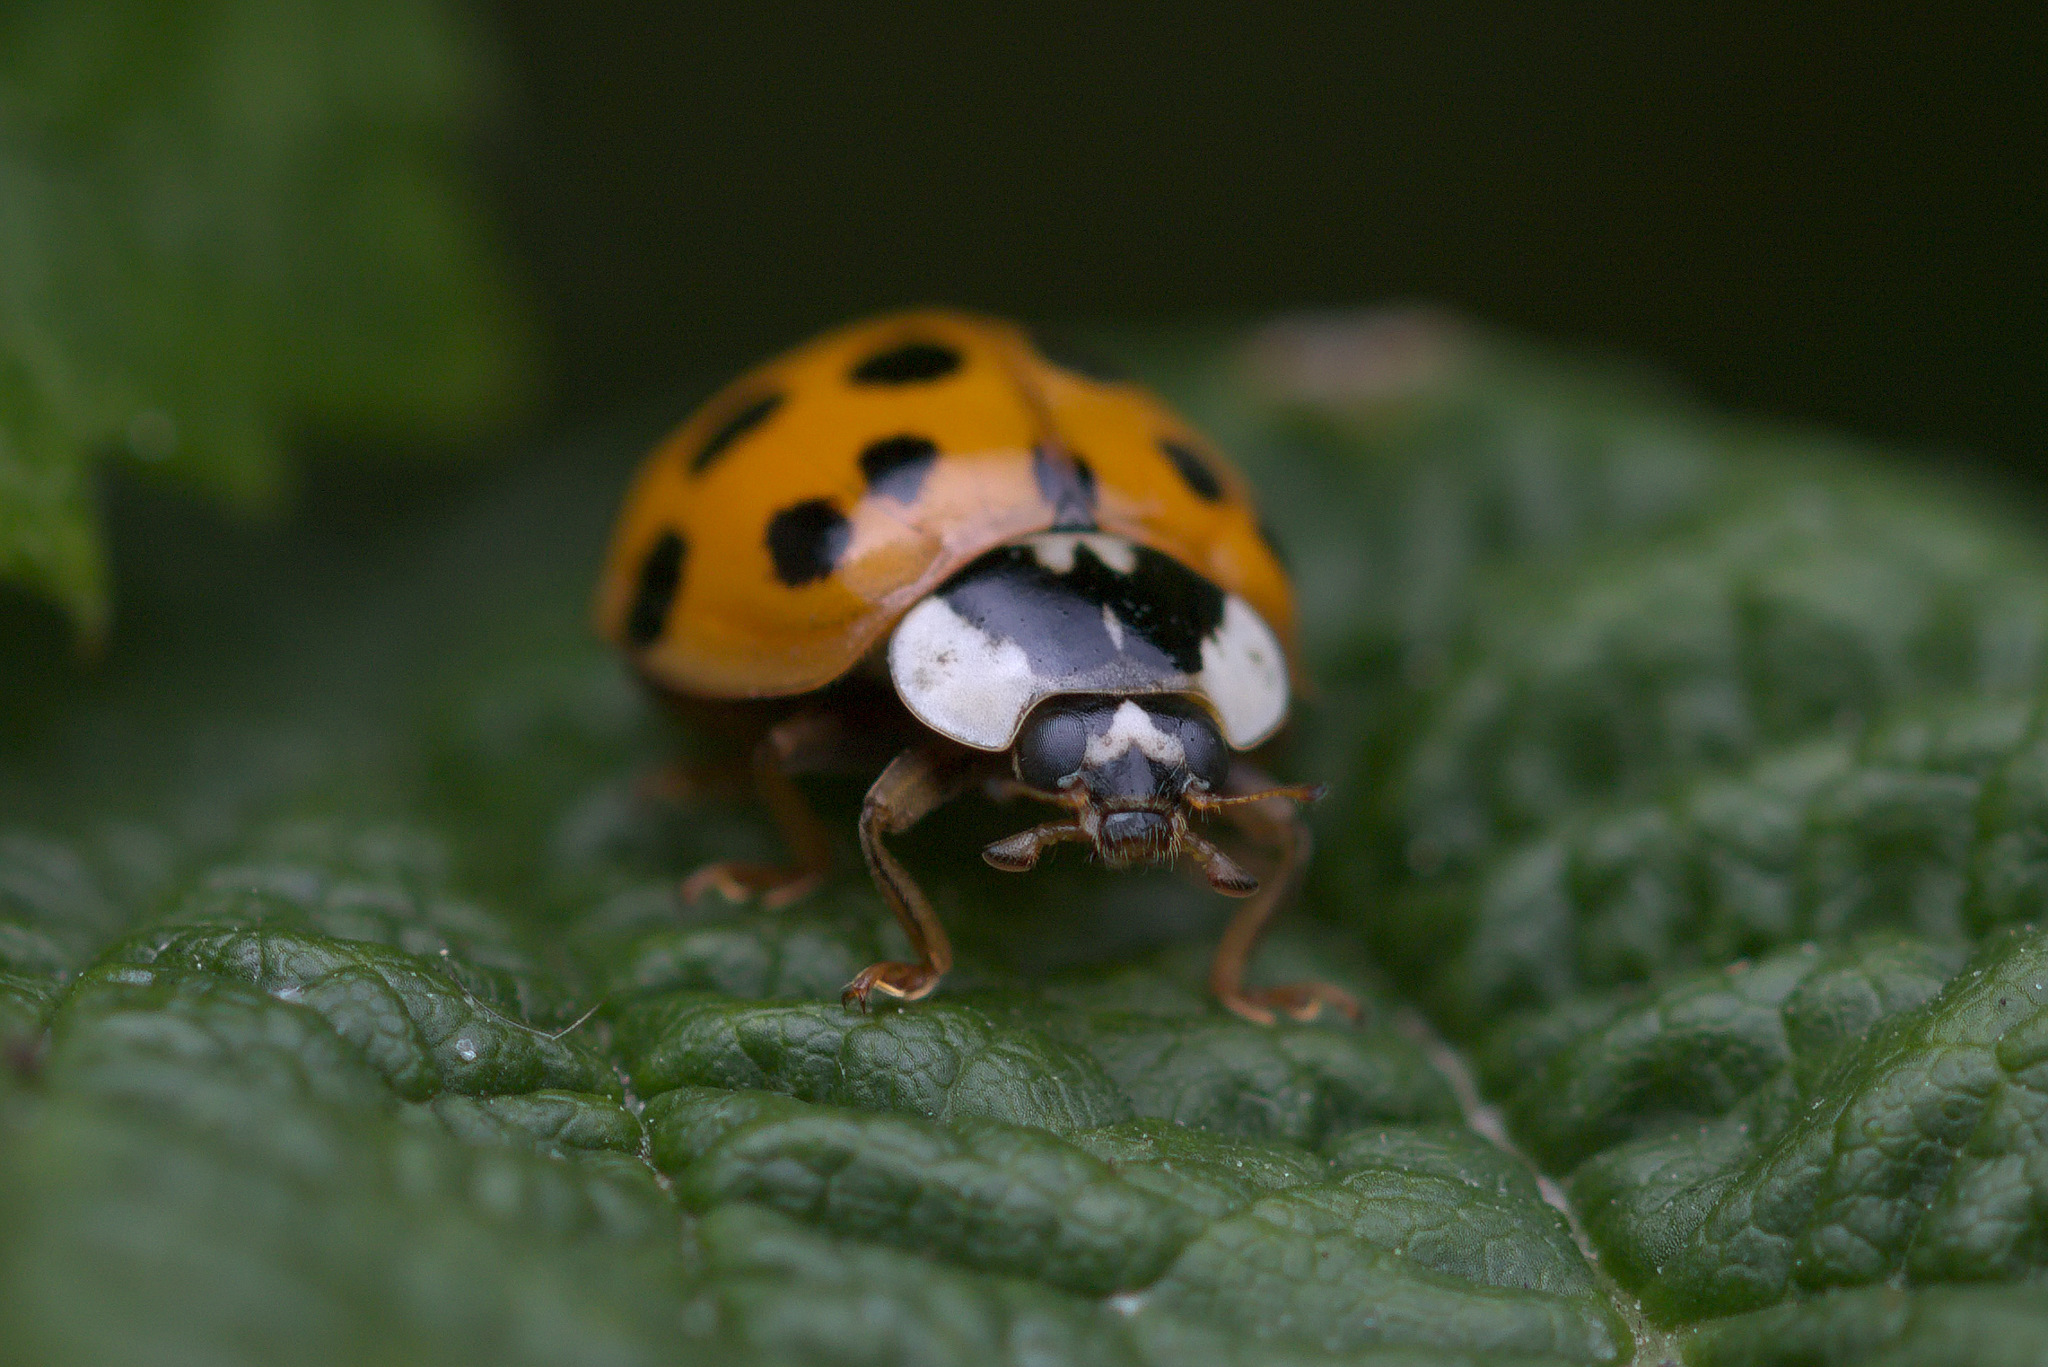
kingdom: Animalia
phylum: Arthropoda
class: Insecta
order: Coleoptera
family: Coccinellidae
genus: Harmonia
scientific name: Harmonia axyridis
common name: Harlequin ladybird
